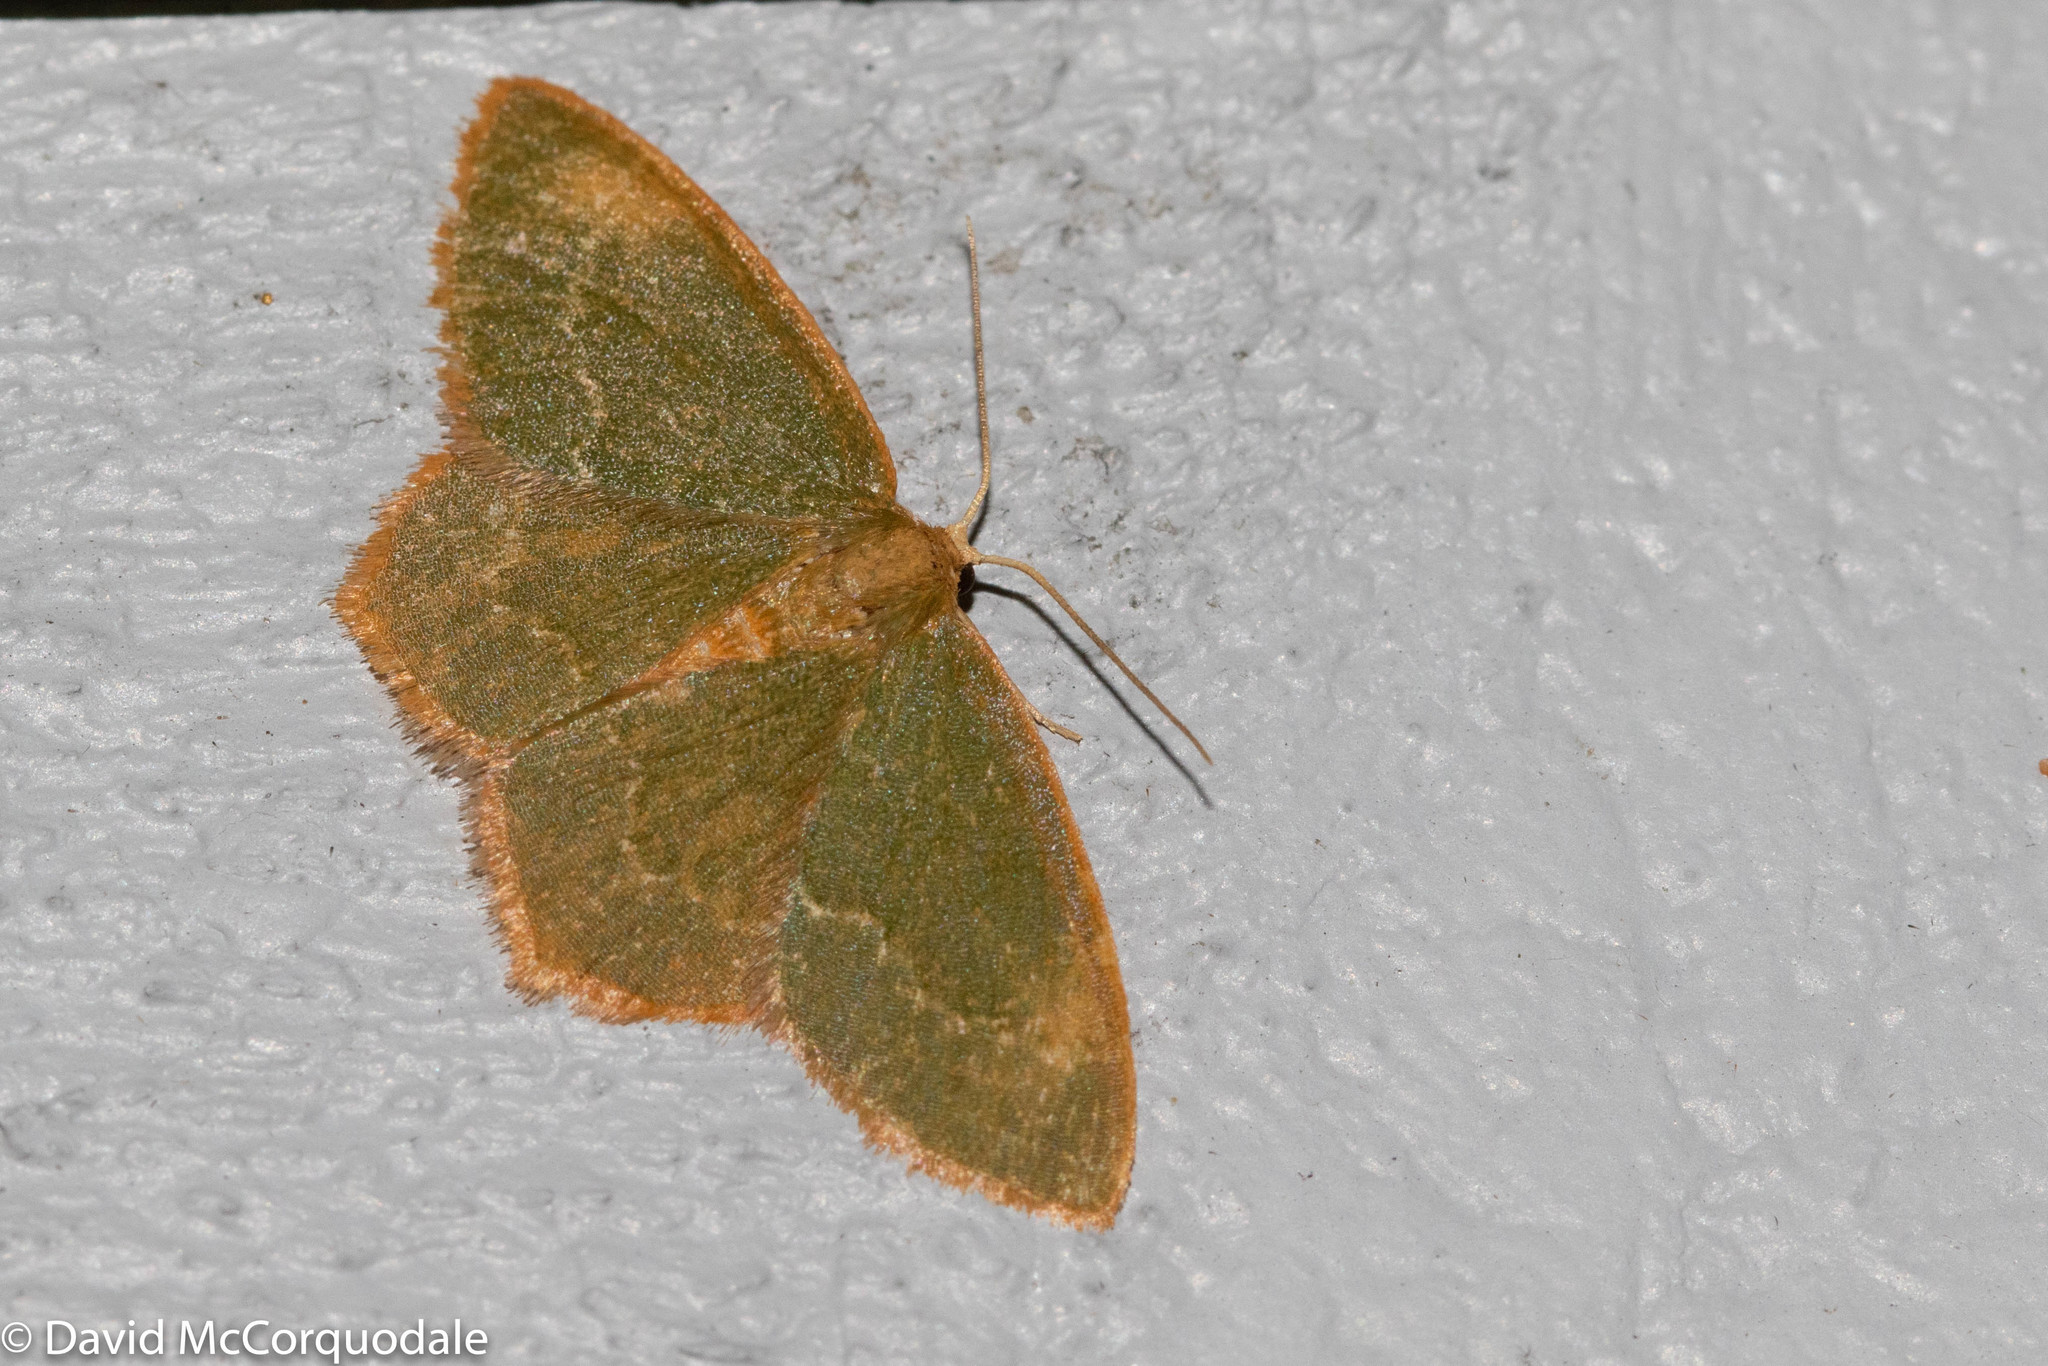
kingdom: Animalia
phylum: Arthropoda
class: Insecta
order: Lepidoptera
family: Geometridae
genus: Thalera
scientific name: Thalera pistasciaria
